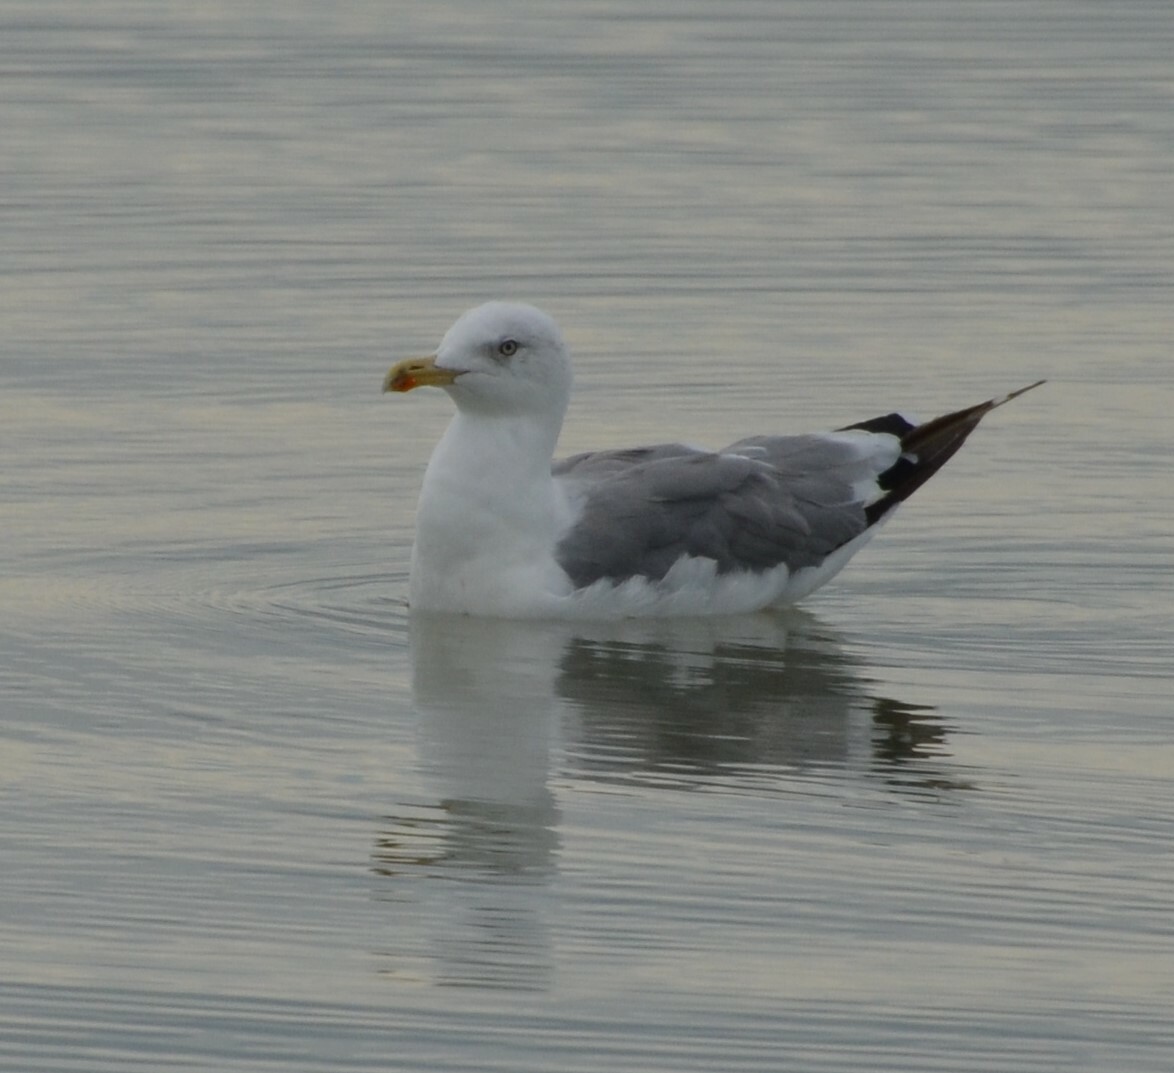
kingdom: Animalia
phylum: Chordata
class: Aves
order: Charadriiformes
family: Laridae
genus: Larus
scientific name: Larus michahellis
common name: Yellow-legged gull
